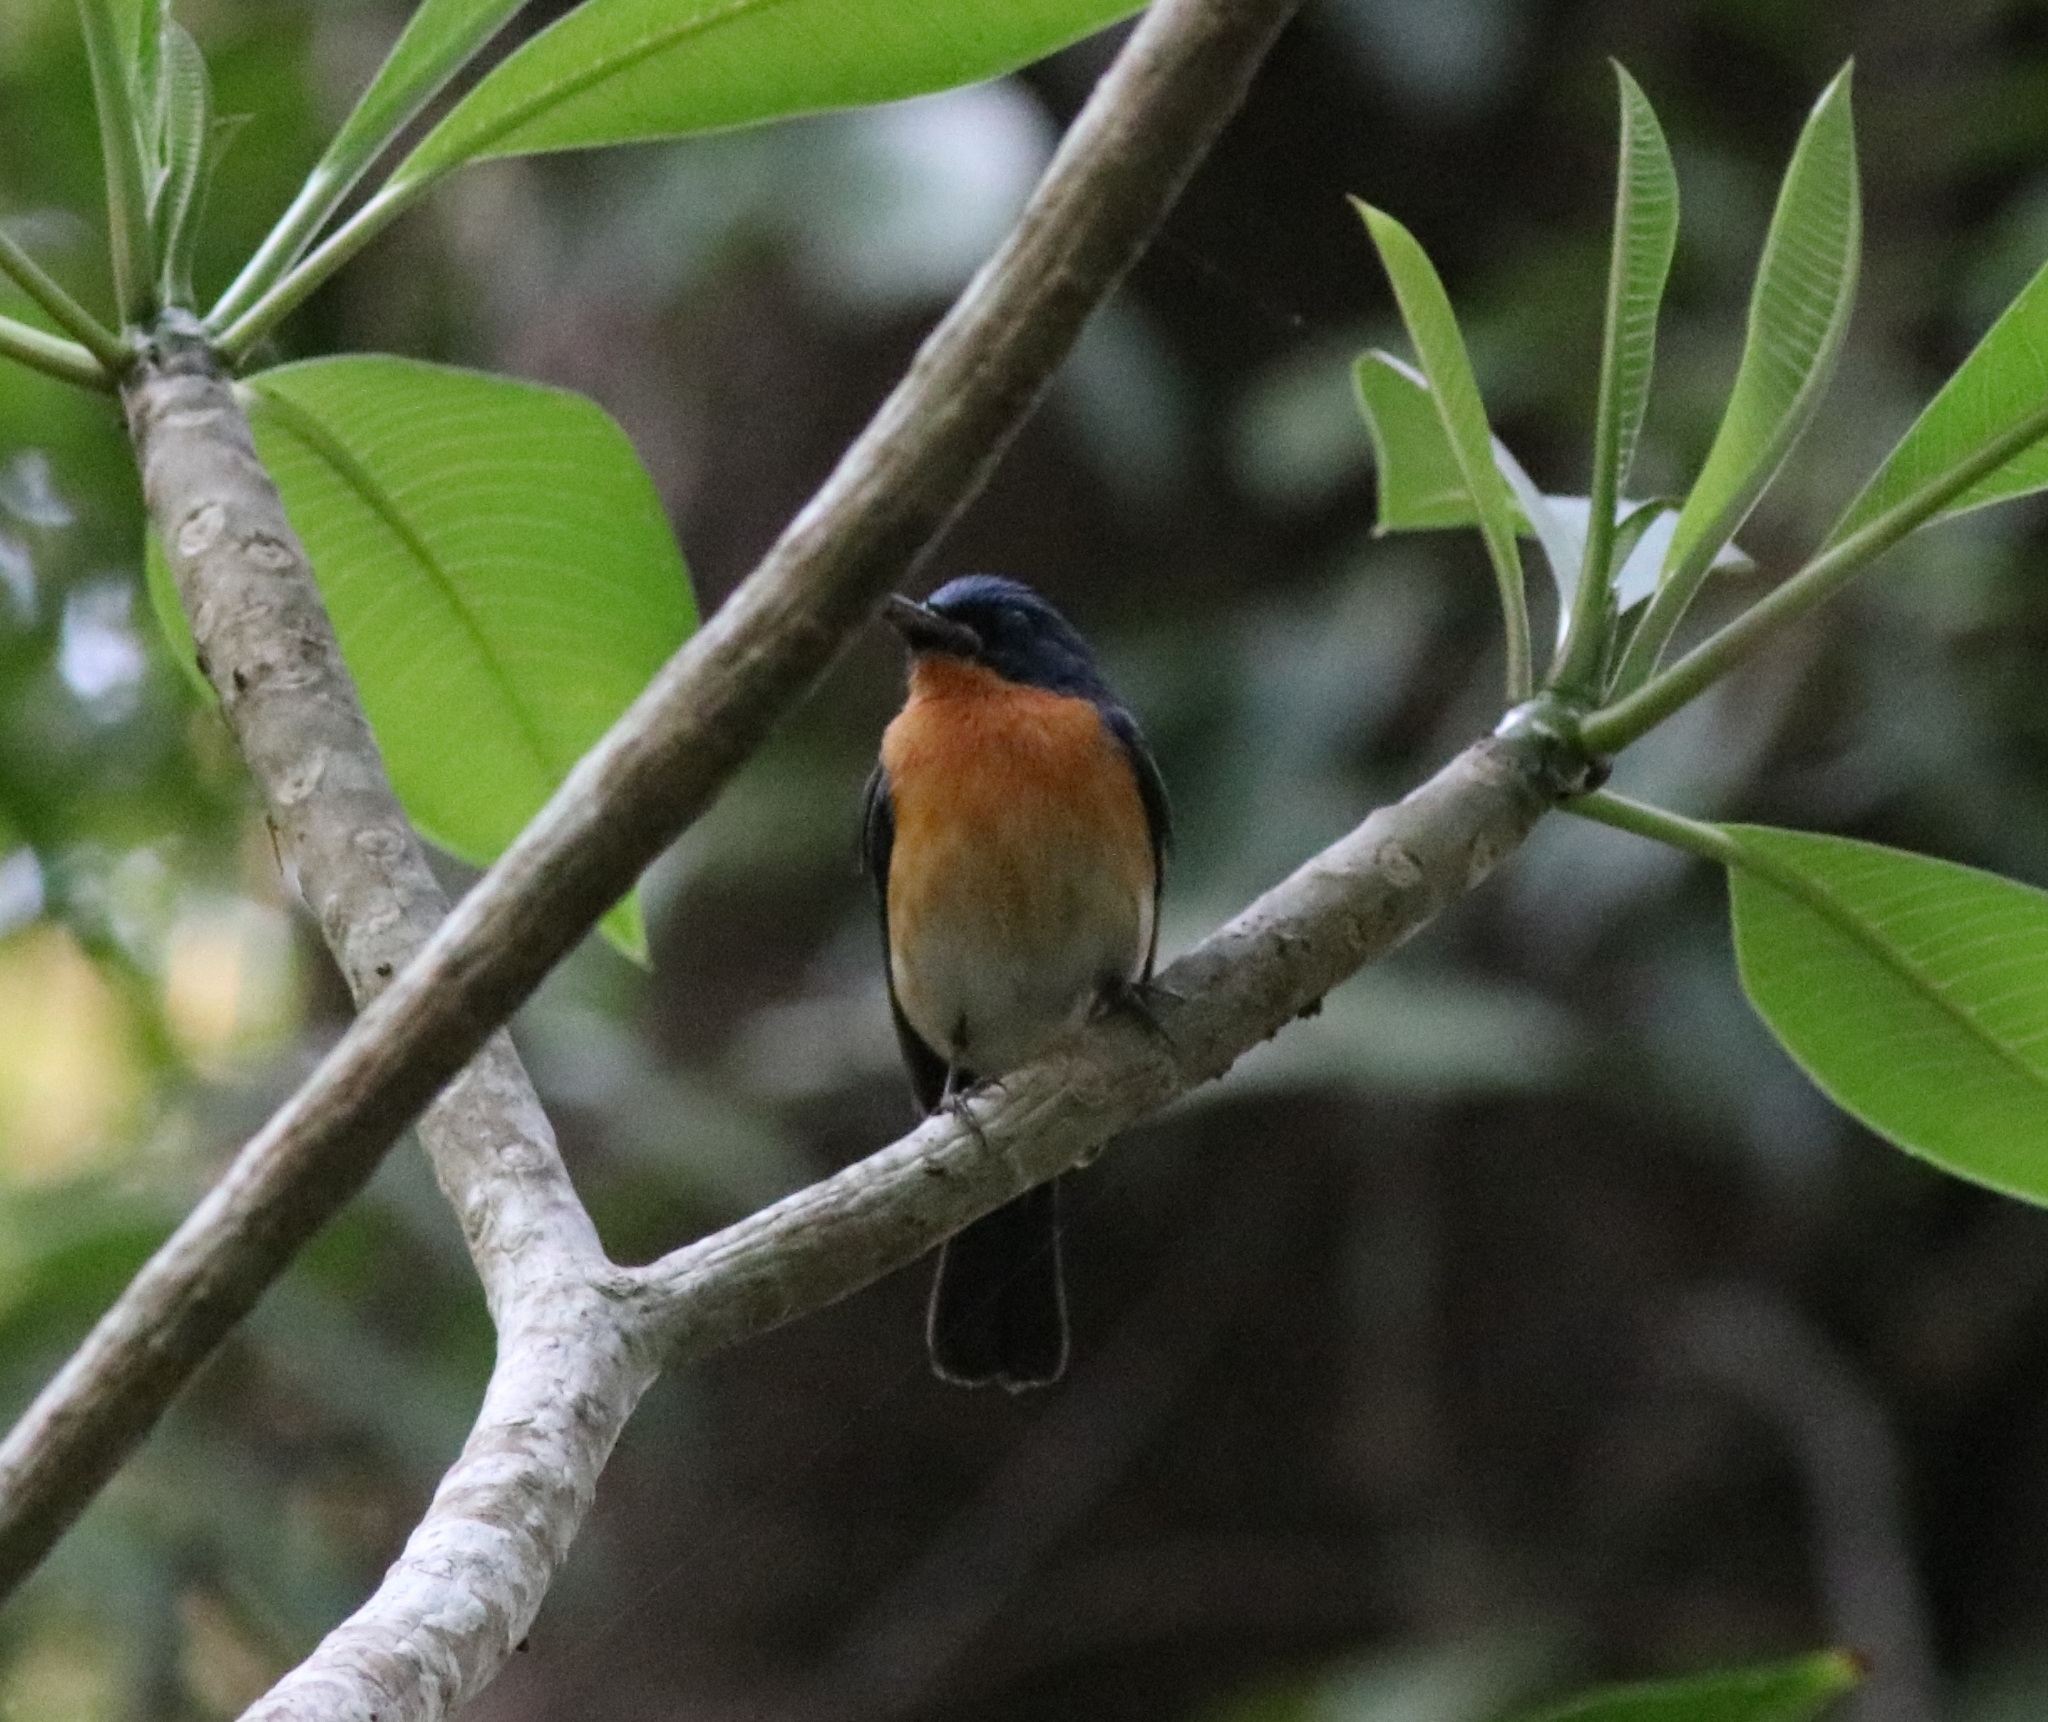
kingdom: Animalia
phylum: Chordata
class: Aves
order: Passeriformes
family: Muscicapidae
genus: Cyornis
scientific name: Cyornis tickelliae
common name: Tickell's blue flycatcher
